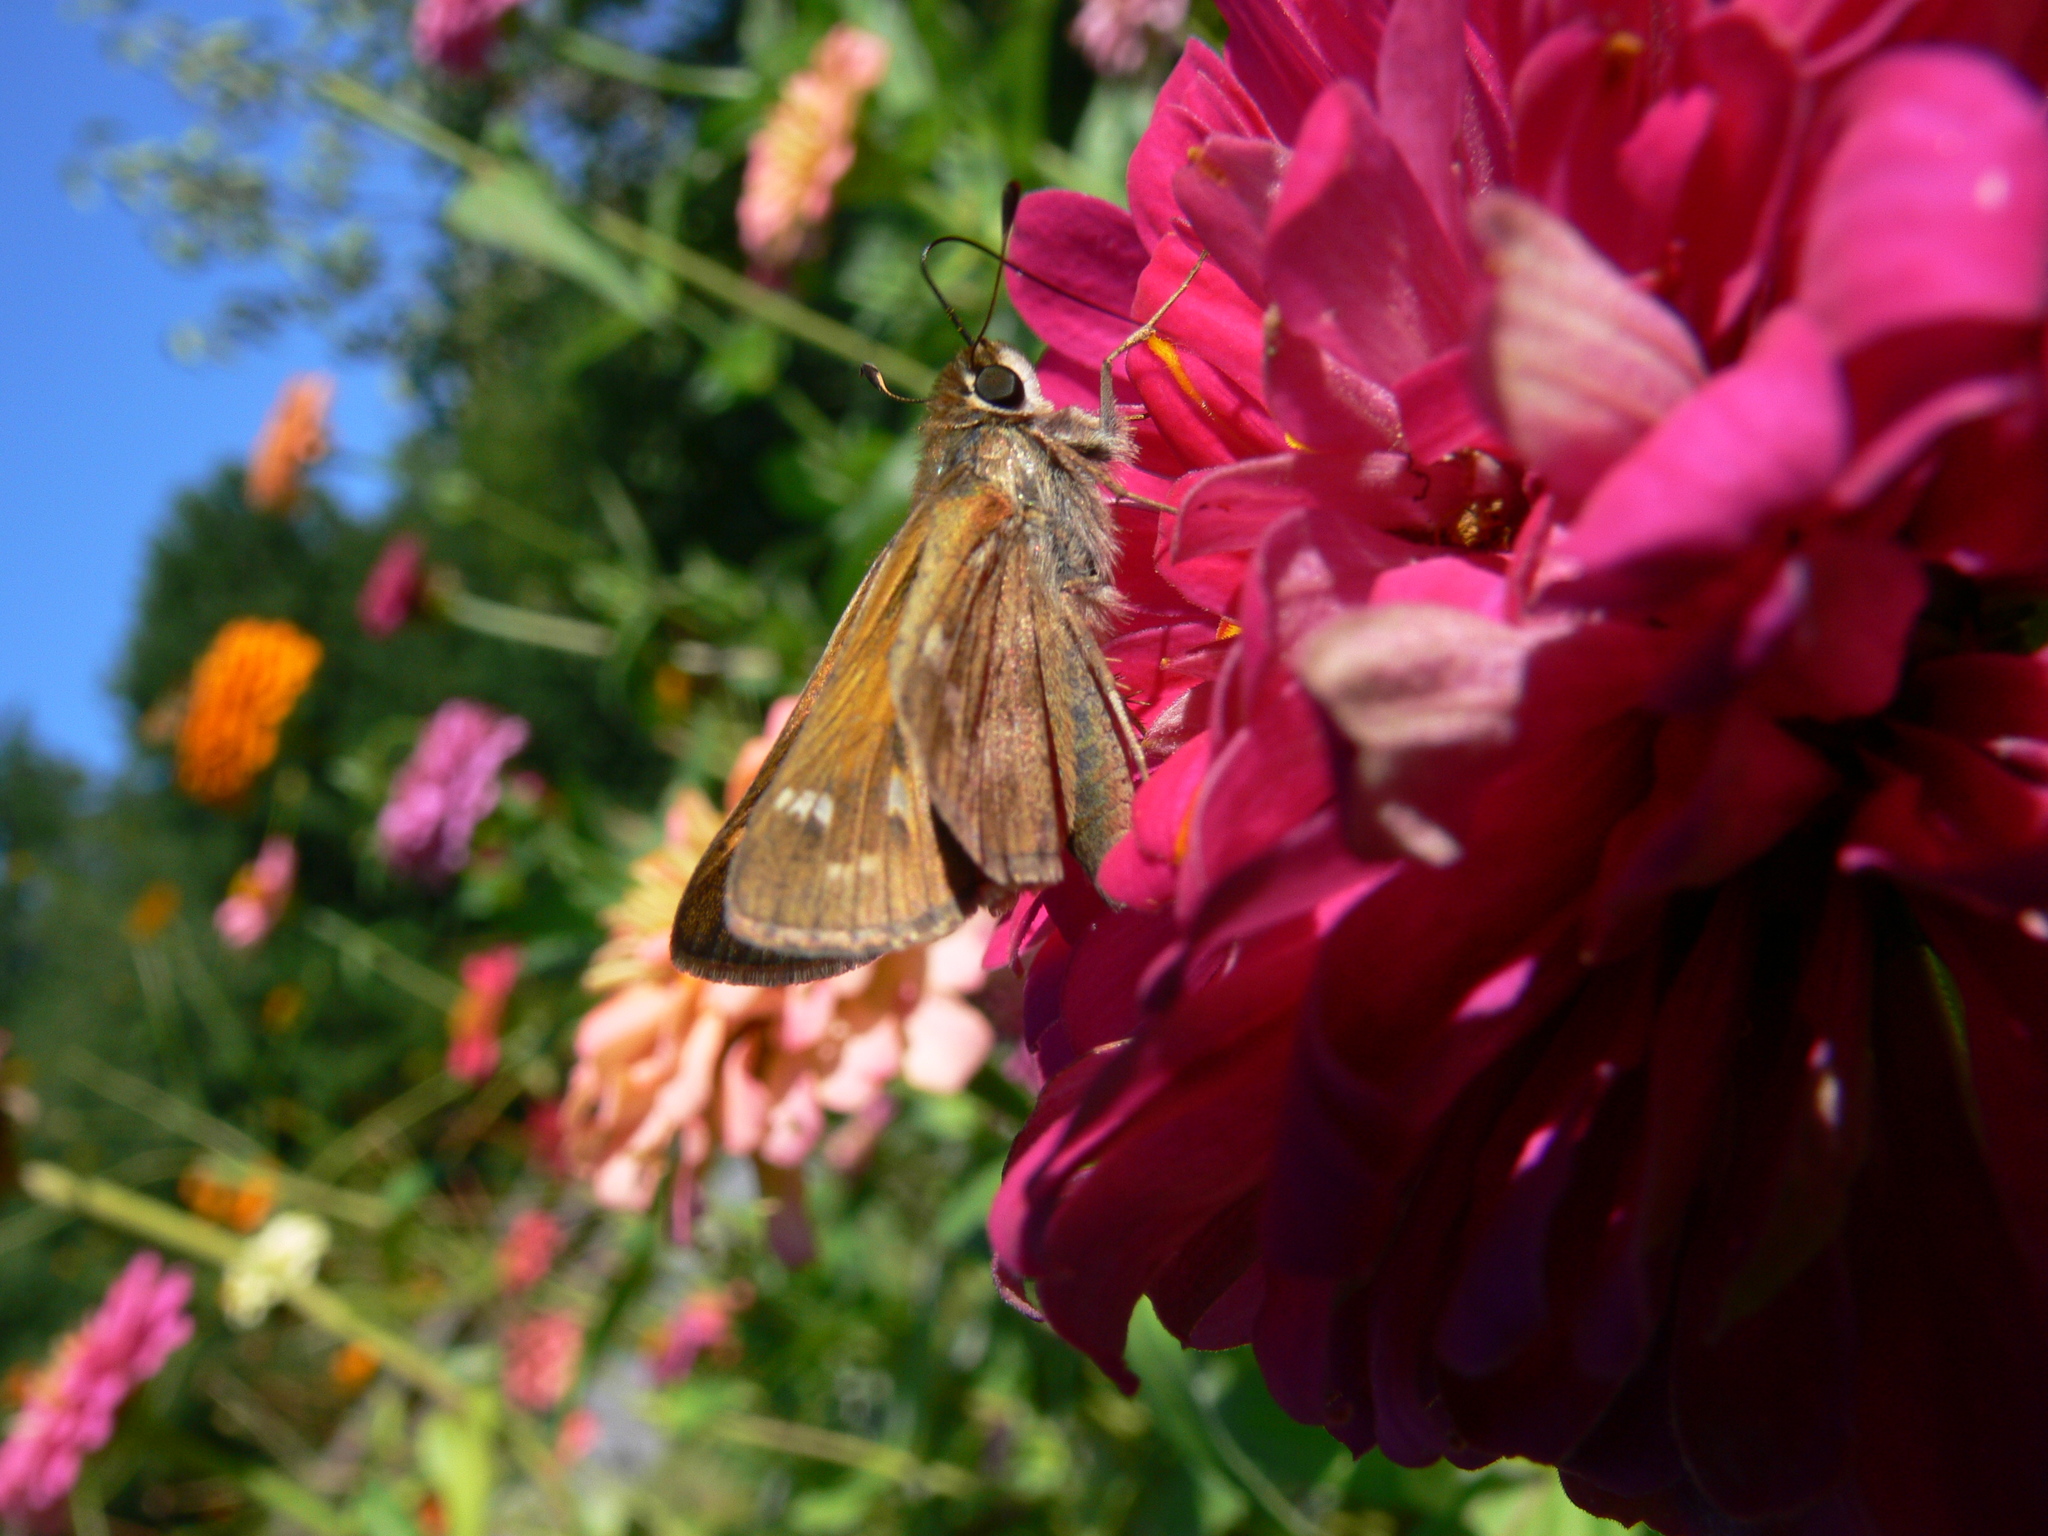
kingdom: Animalia
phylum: Arthropoda
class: Insecta
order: Lepidoptera
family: Hesperiidae
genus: Atalopedes
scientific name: Atalopedes
